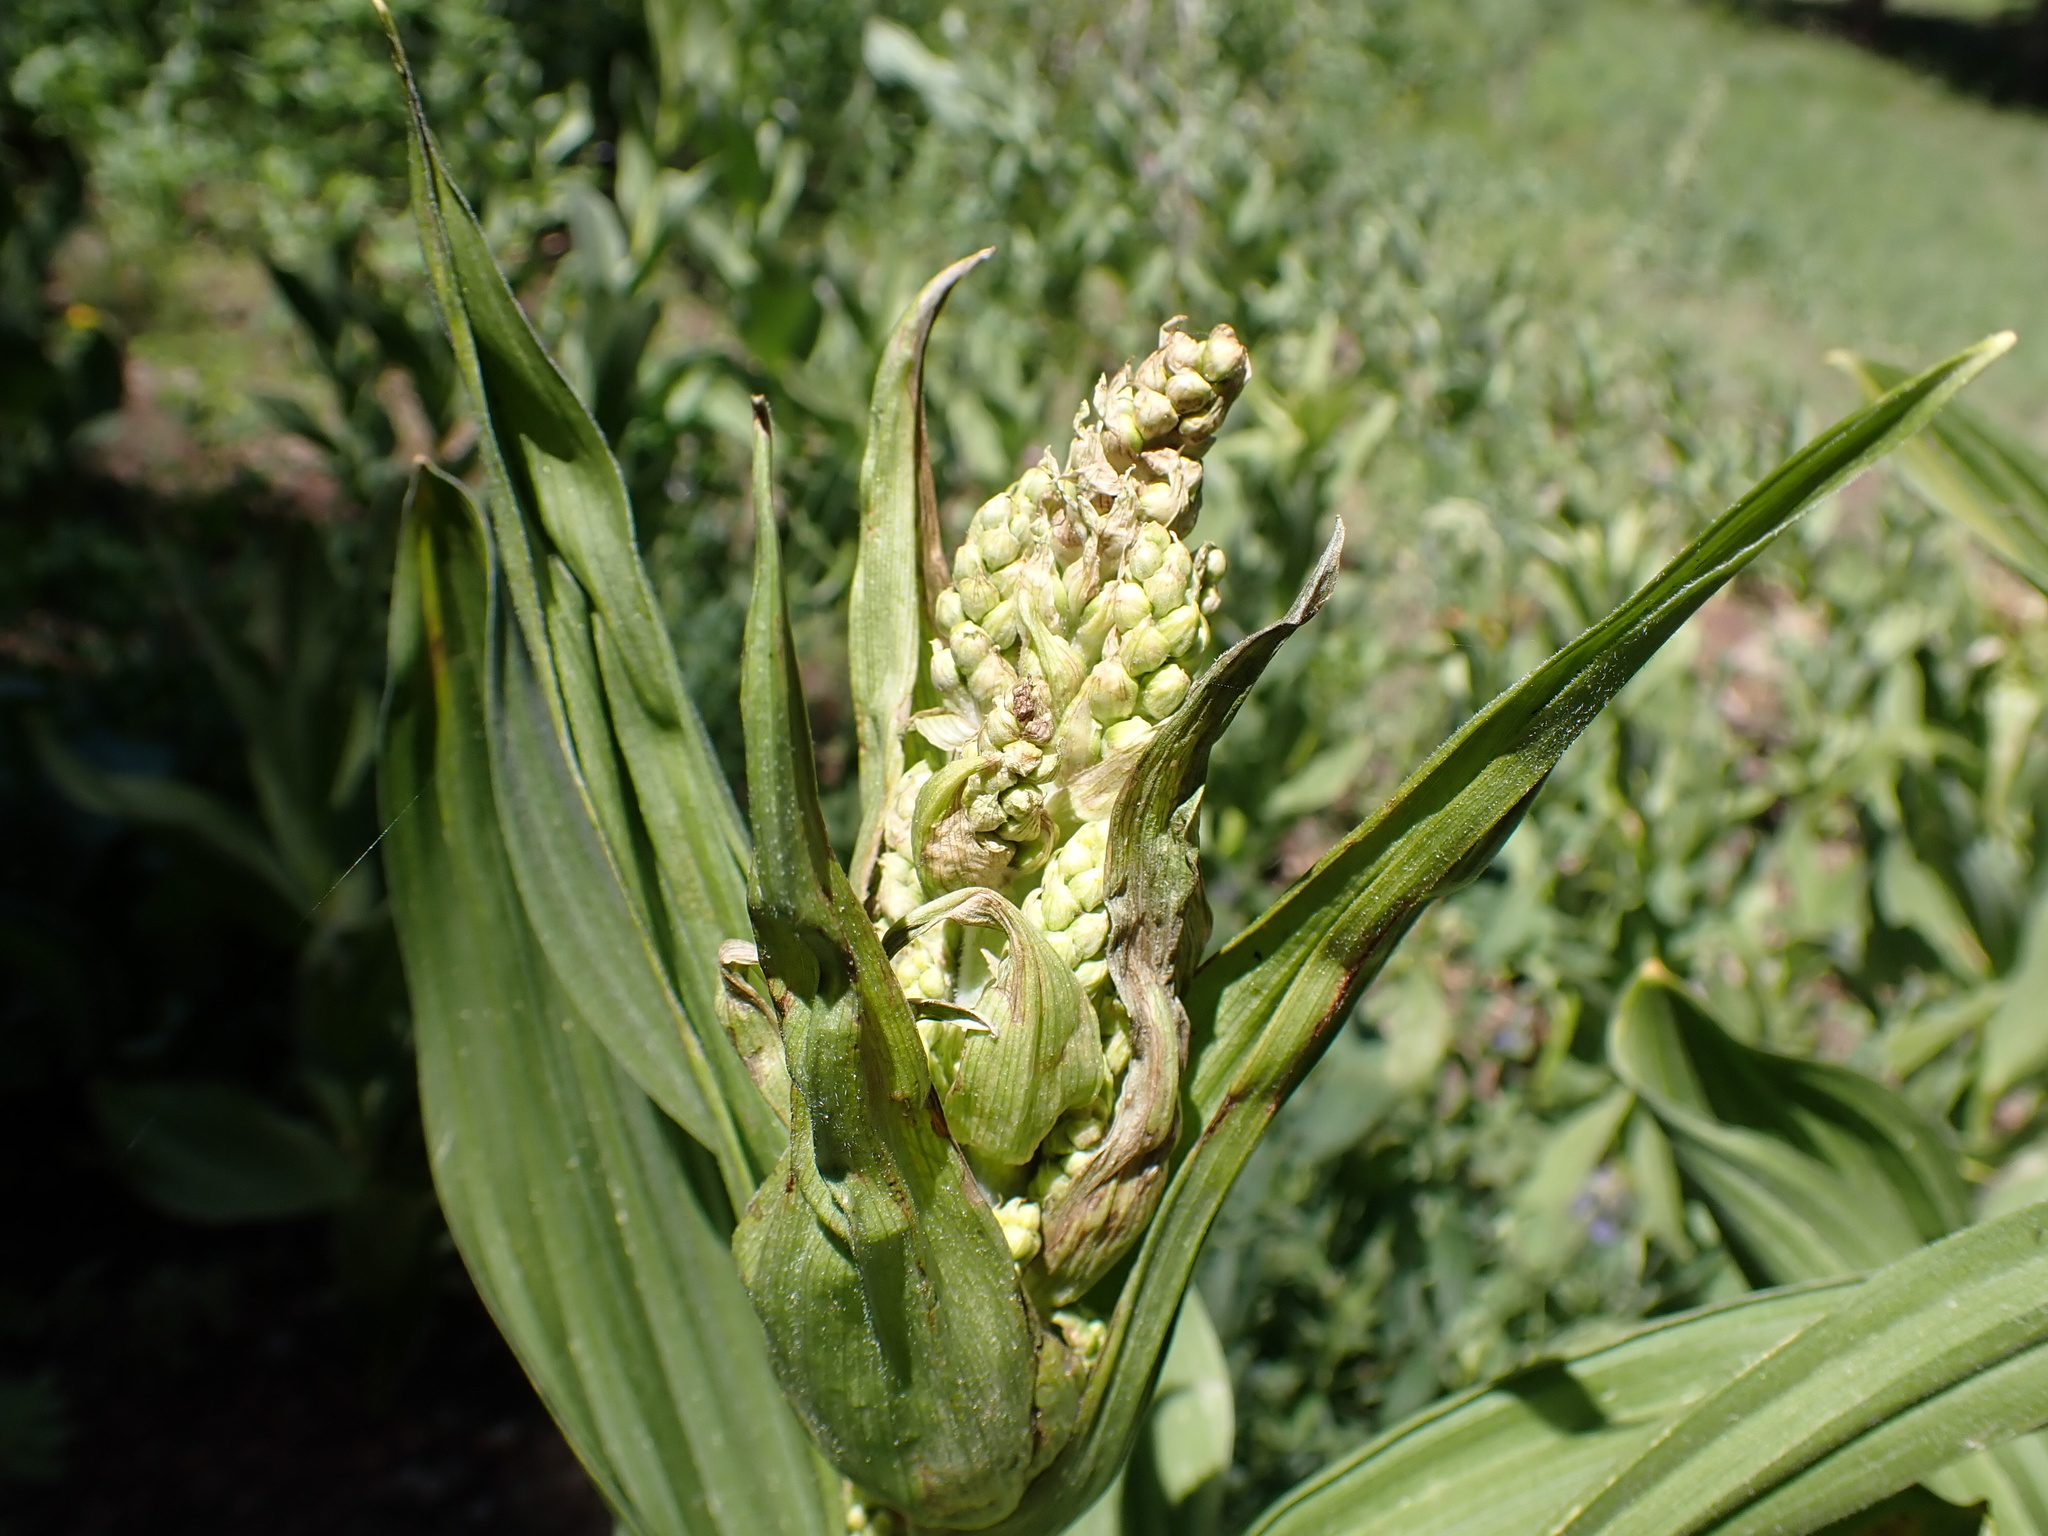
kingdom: Plantae
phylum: Tracheophyta
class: Liliopsida
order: Liliales
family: Melanthiaceae
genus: Veratrum
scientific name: Veratrum californicum
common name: California veratrum
